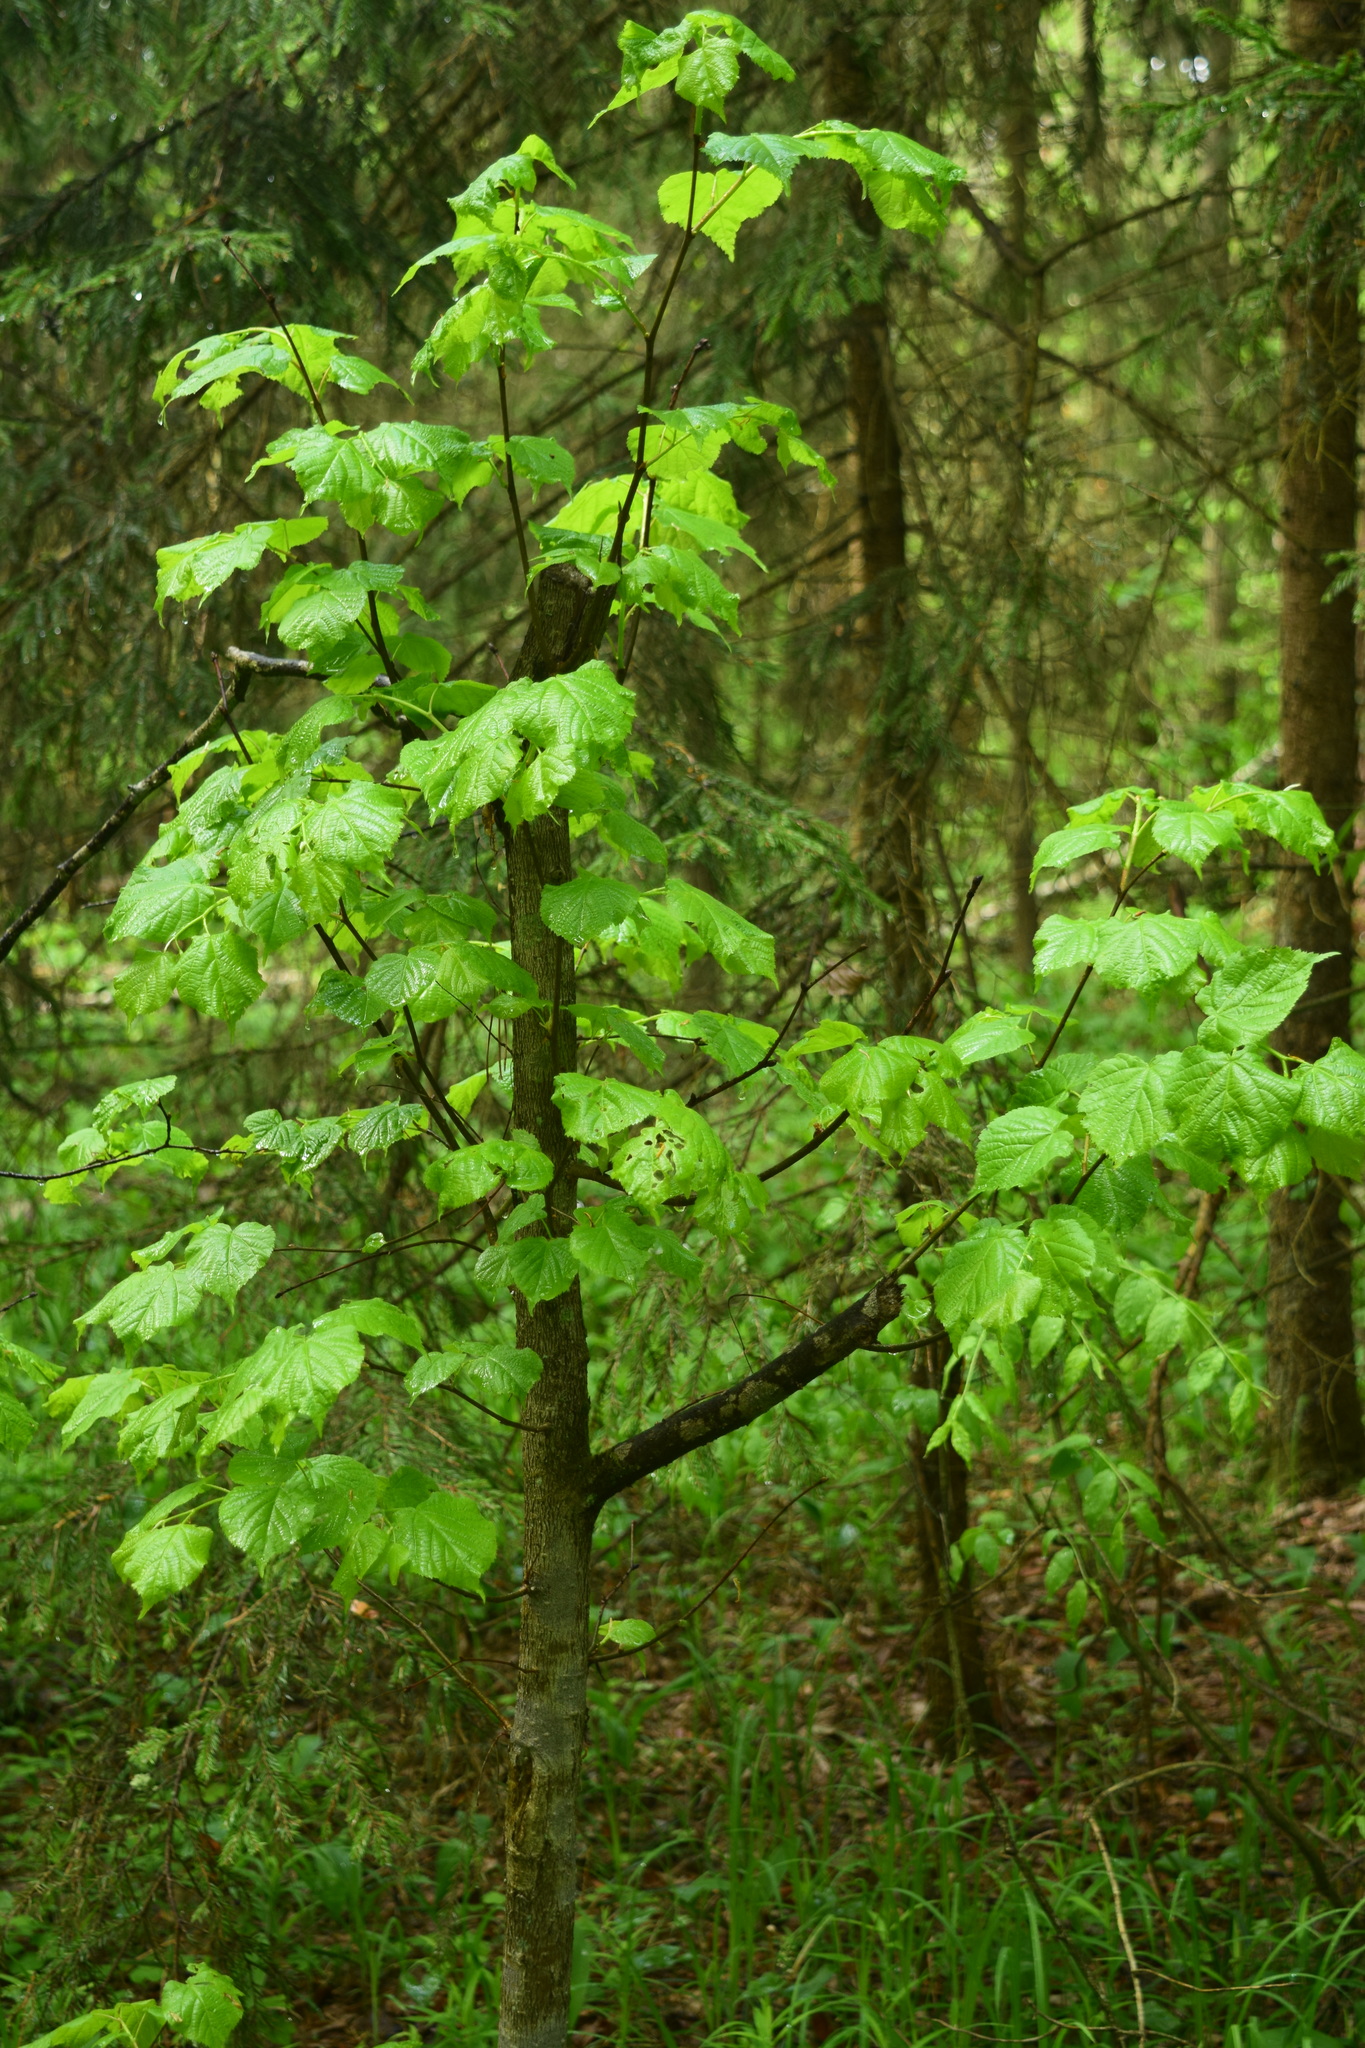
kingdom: Plantae
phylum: Tracheophyta
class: Magnoliopsida
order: Sapindales
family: Sapindaceae
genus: Acer
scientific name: Acer platanoides
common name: Norway maple
